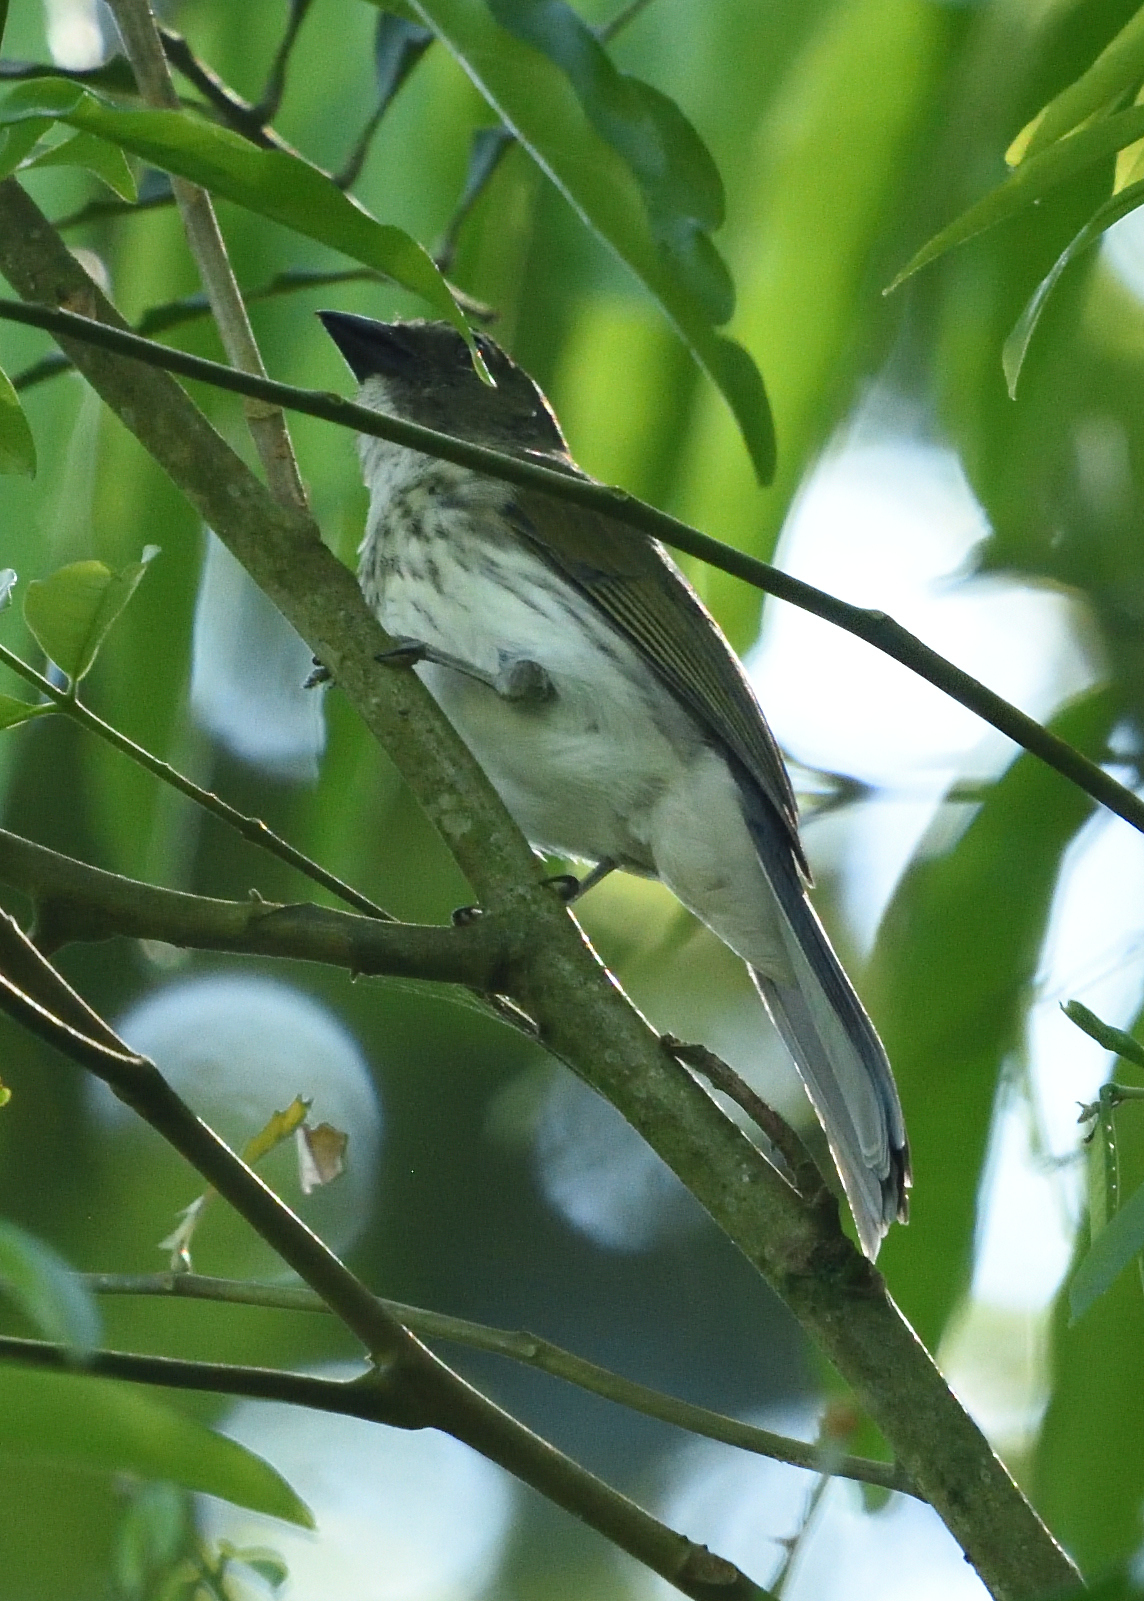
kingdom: Animalia
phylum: Chordata
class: Aves
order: Passeriformes
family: Thraupidae
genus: Saltator
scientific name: Saltator striatipectus
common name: Streaked saltator
